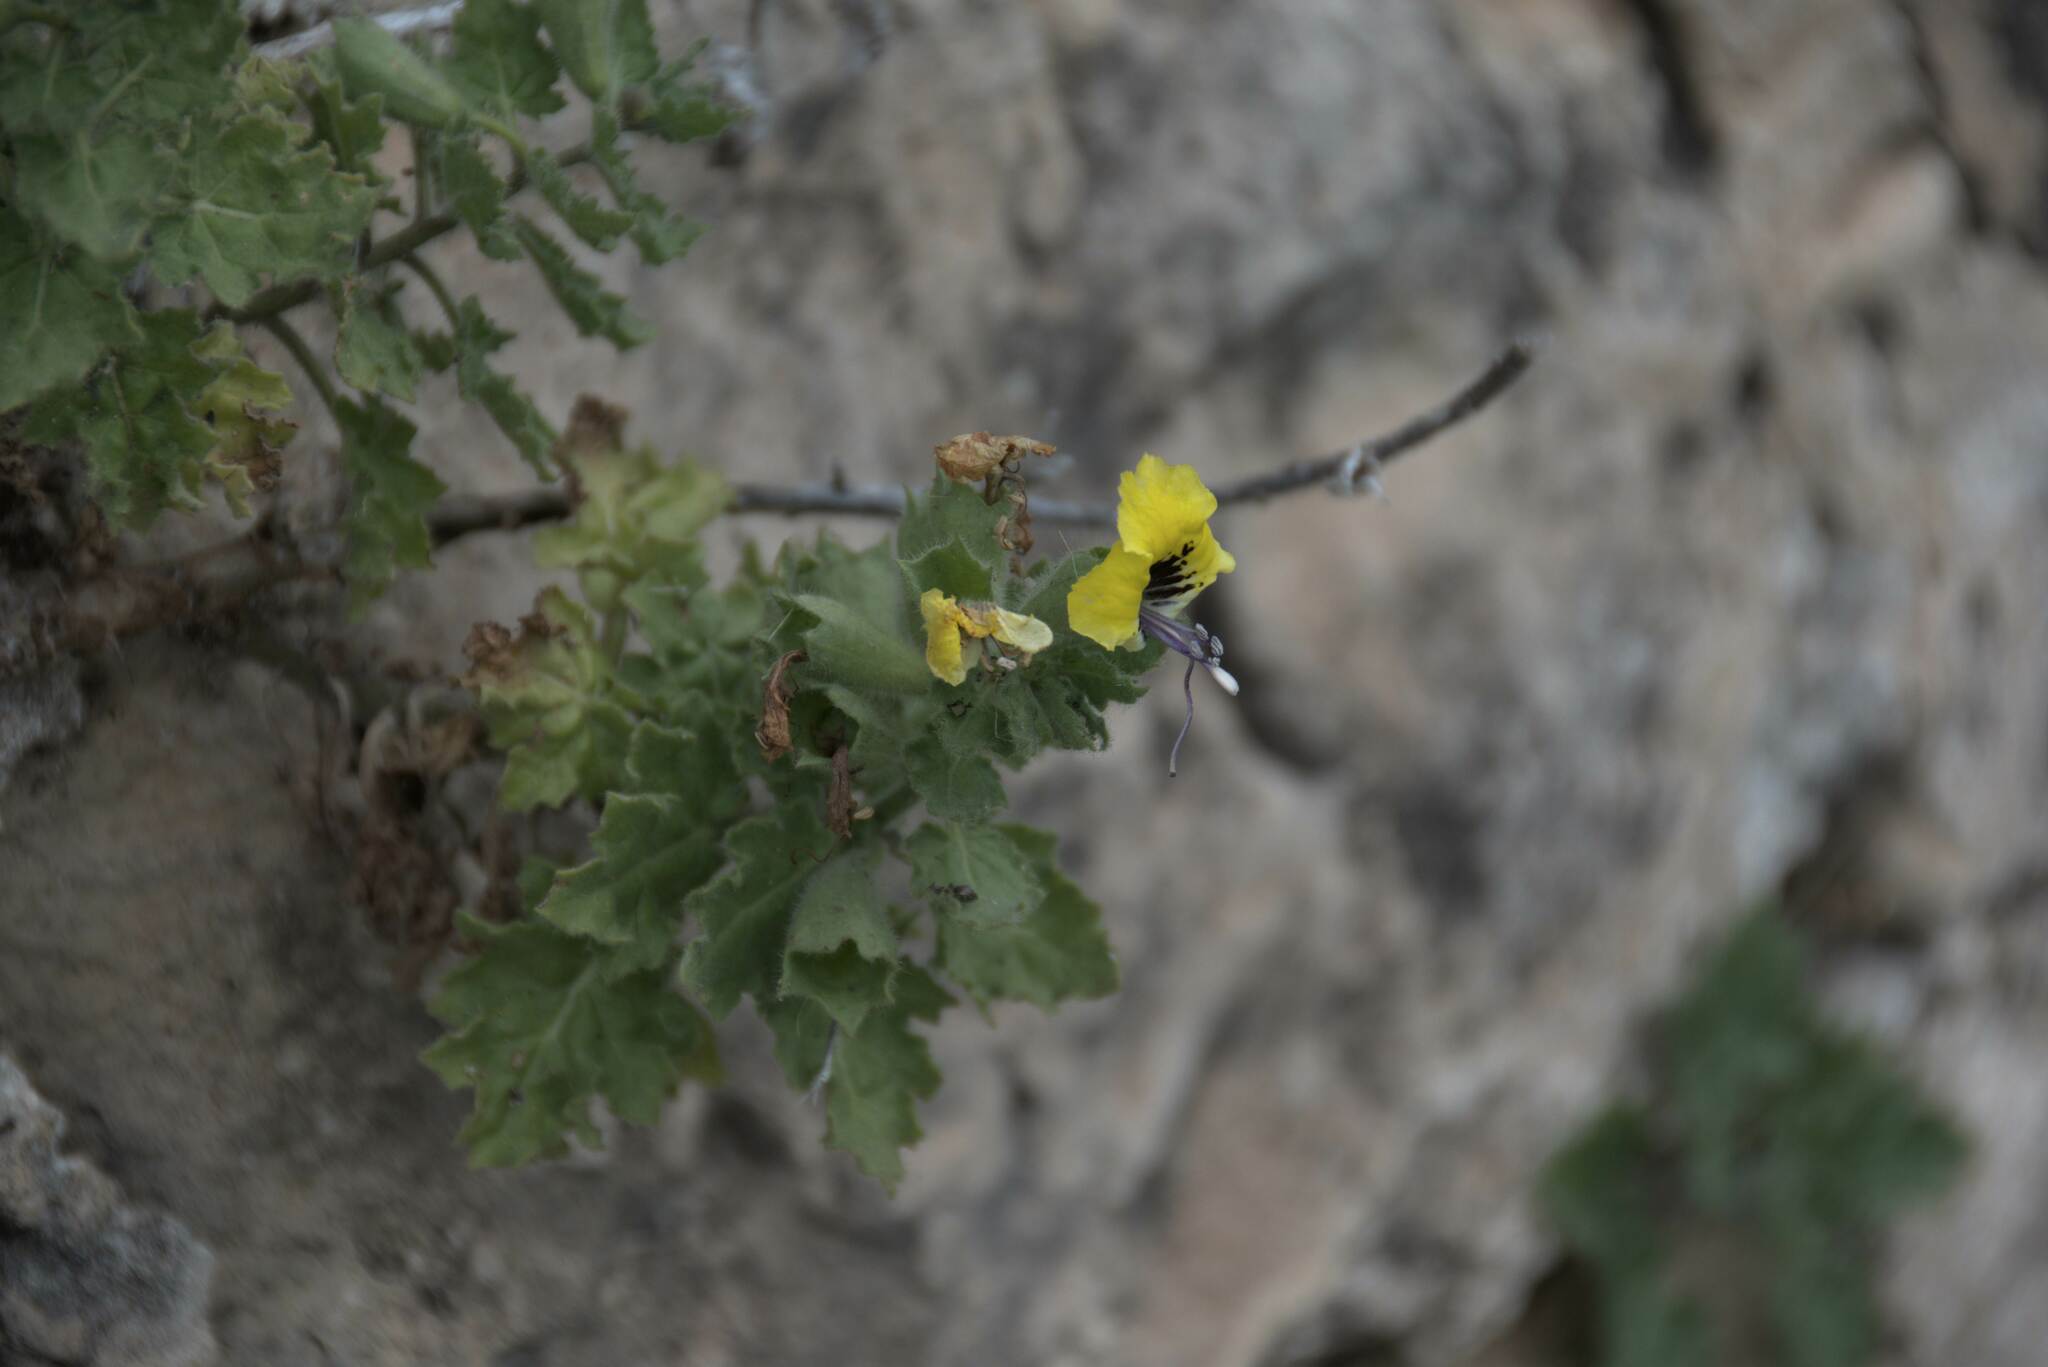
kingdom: Plantae
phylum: Tracheophyta
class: Magnoliopsida
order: Solanales
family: Solanaceae
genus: Hyoscyamus
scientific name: Hyoscyamus aureus
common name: Golden henbane
